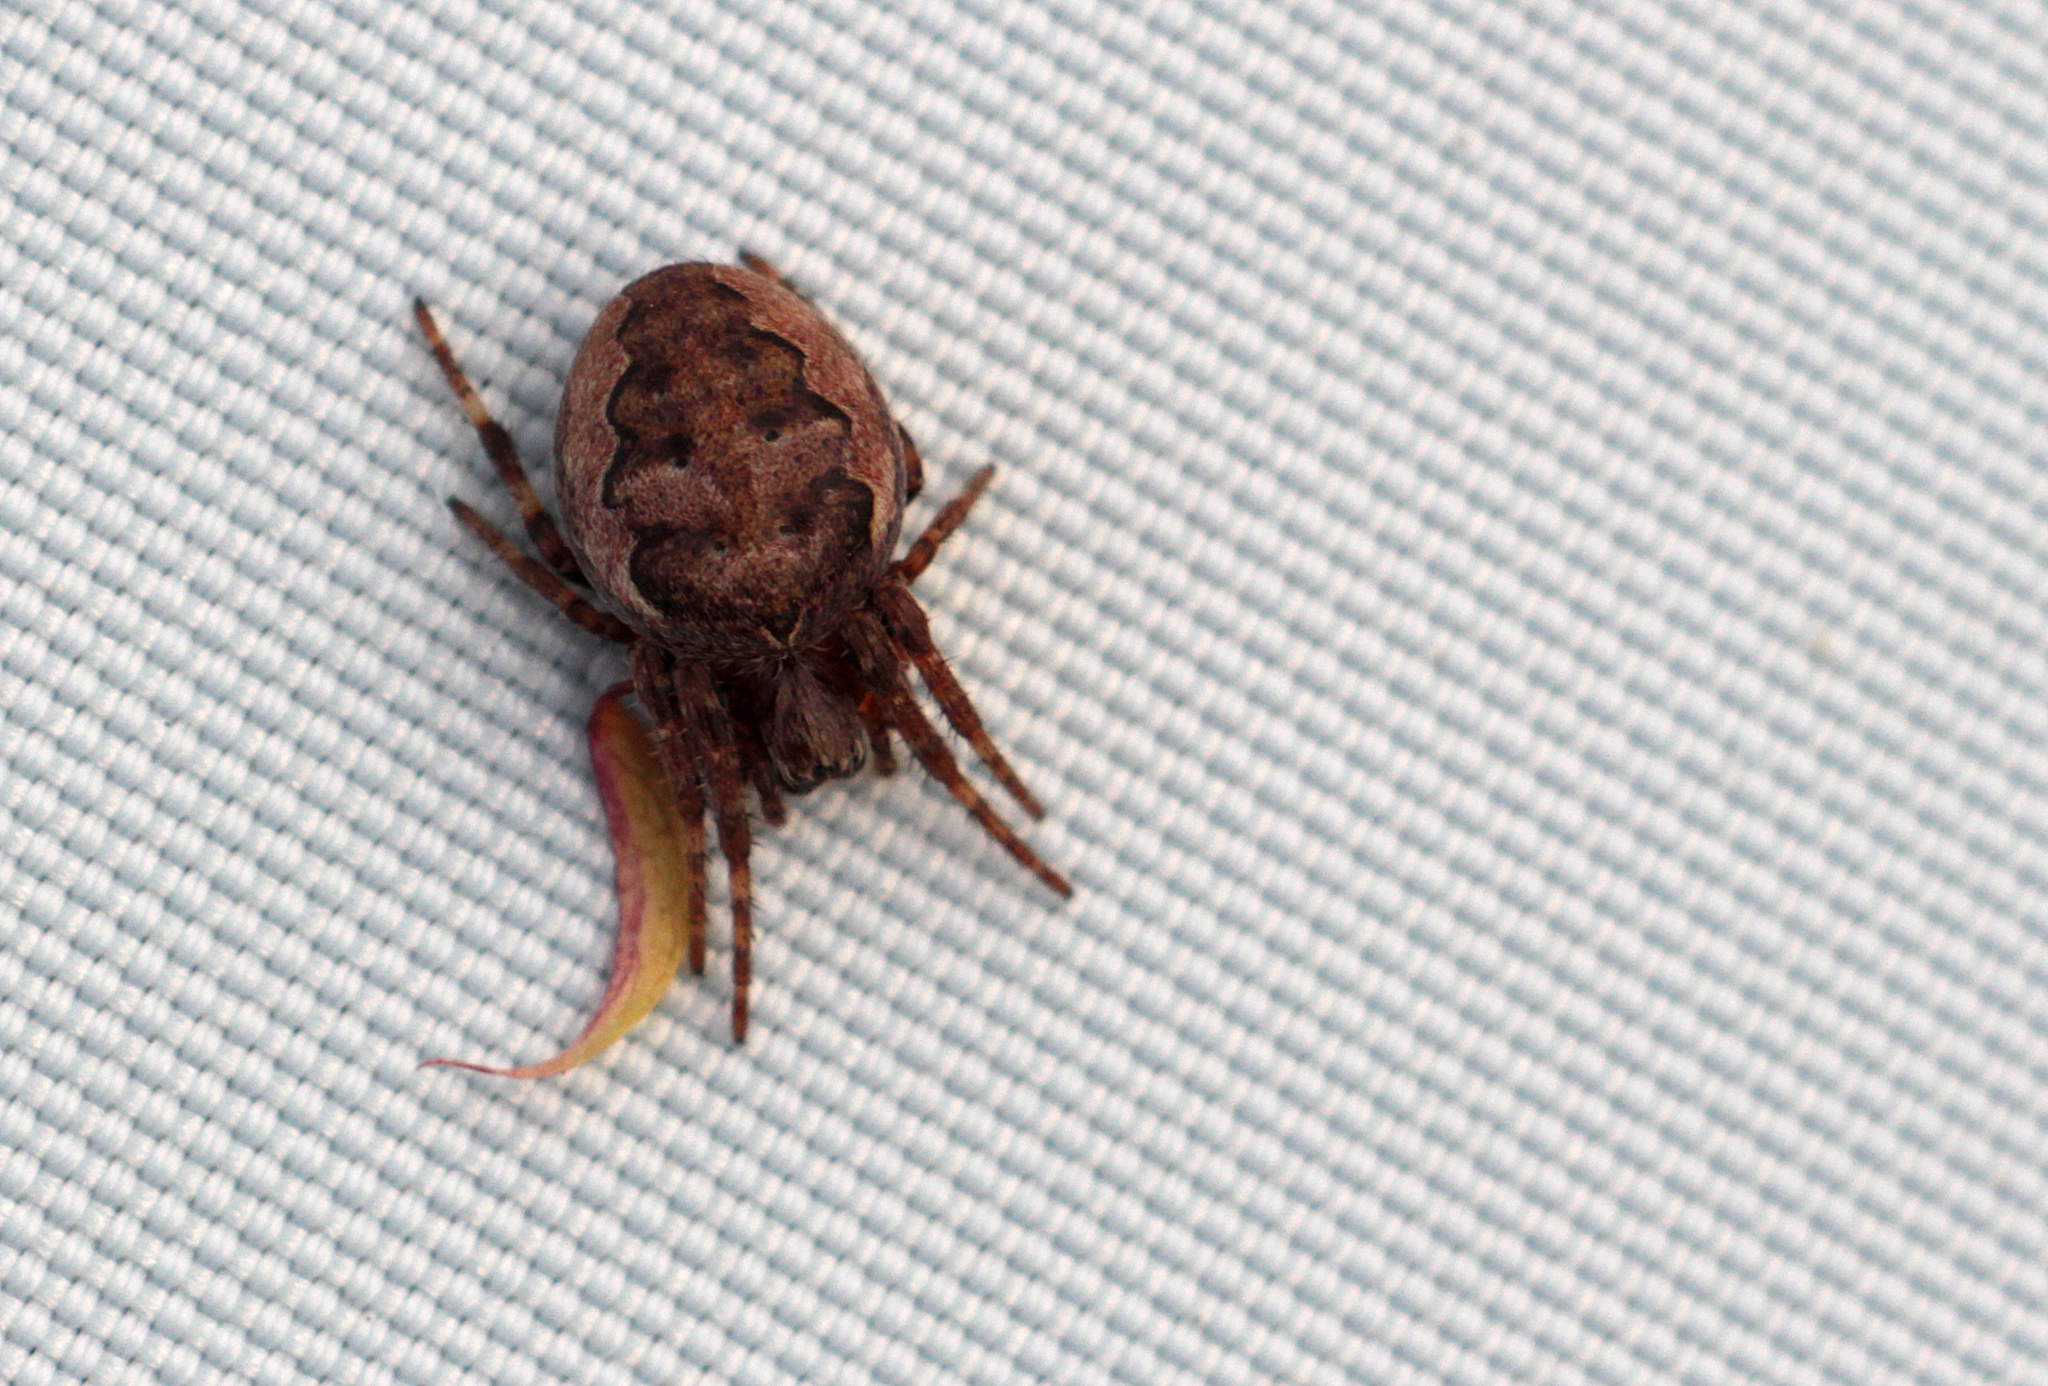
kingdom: Animalia
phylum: Arthropoda
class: Arachnida
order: Araneae
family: Araneidae
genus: Larinioides
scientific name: Larinioides patagiatus
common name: Ornamental orbweaver
